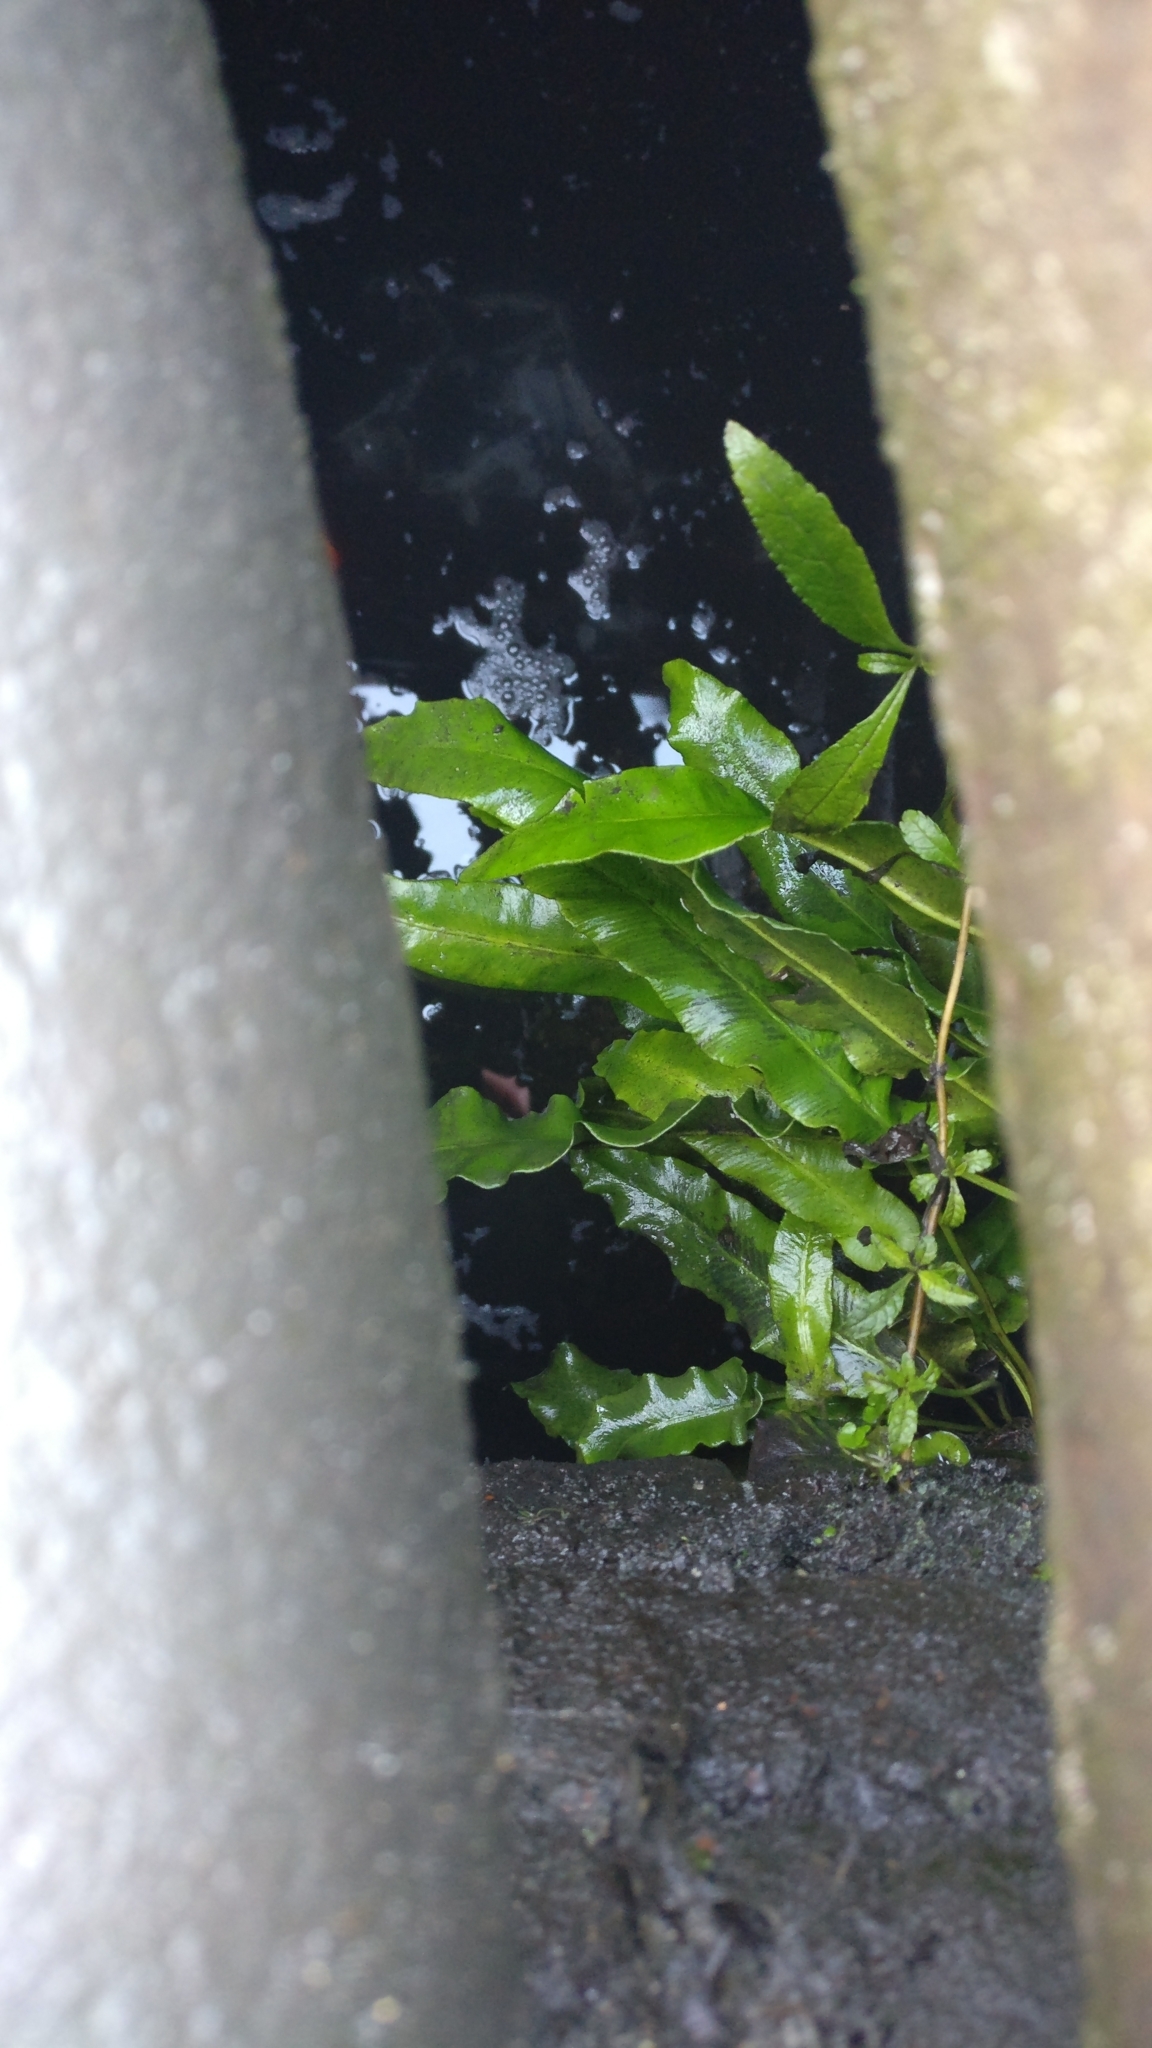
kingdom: Plantae
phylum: Tracheophyta
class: Polypodiopsida
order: Polypodiales
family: Aspleniaceae
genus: Asplenium
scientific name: Asplenium scolopendrium
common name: Hart's-tongue fern
